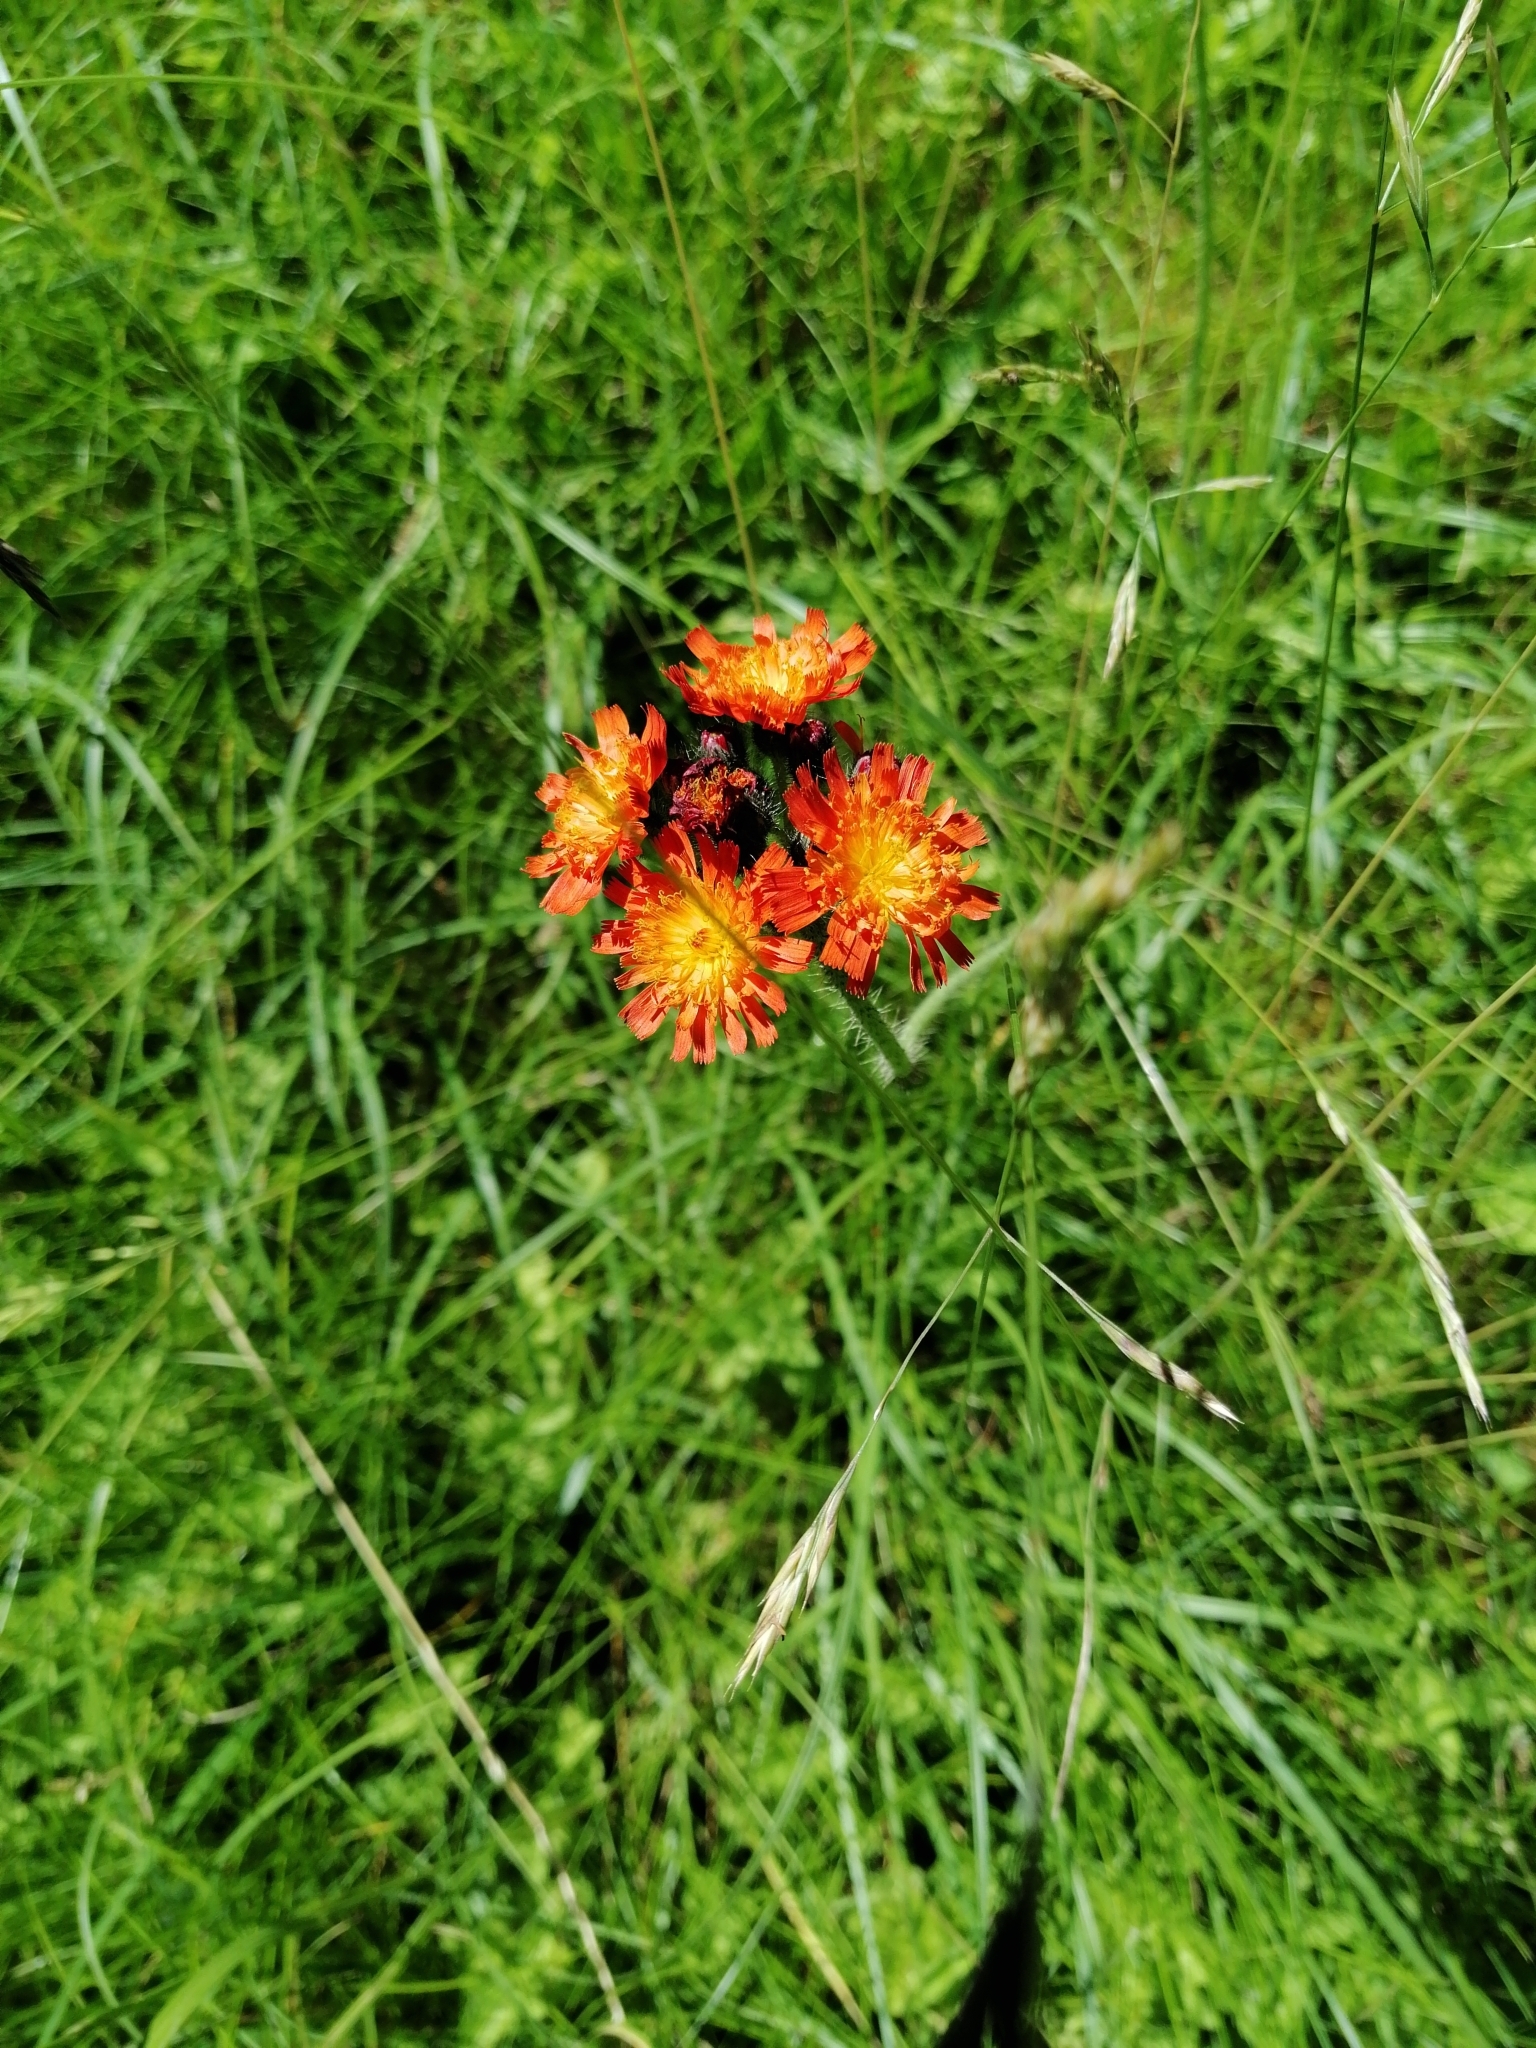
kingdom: Plantae
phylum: Tracheophyta
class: Magnoliopsida
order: Asterales
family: Asteraceae
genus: Pilosella
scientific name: Pilosella aurantiaca
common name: Fox-and-cubs
